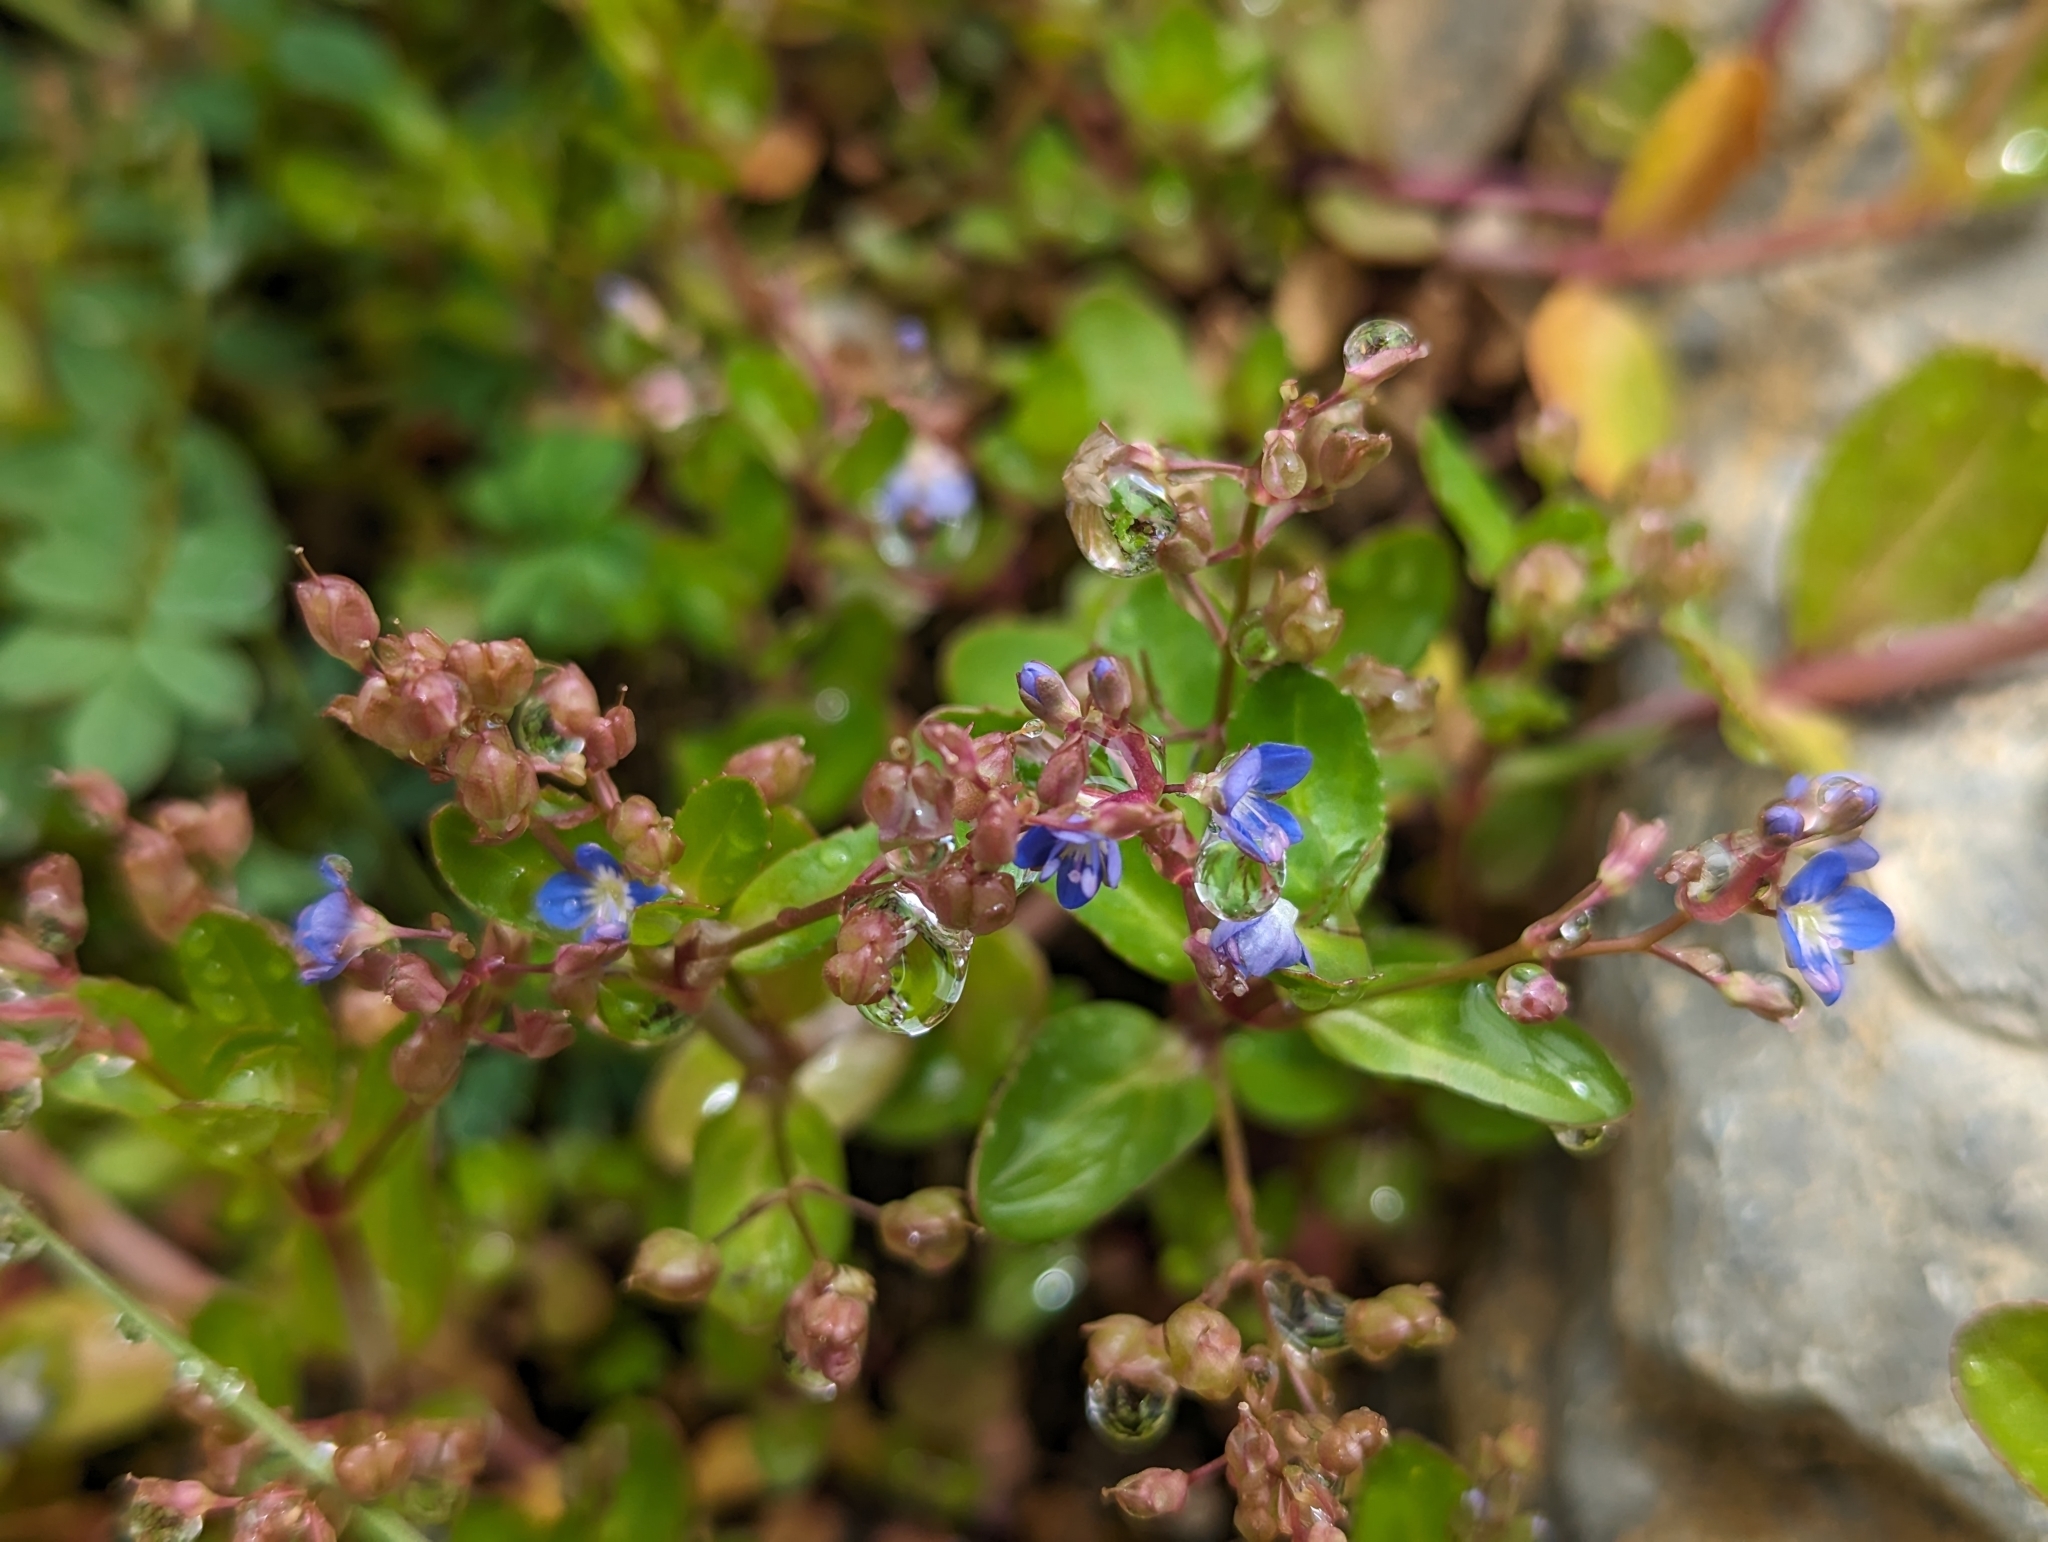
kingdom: Plantae
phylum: Tracheophyta
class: Magnoliopsida
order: Lamiales
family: Plantaginaceae
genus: Veronica
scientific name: Veronica beccabunga
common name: Brooklime
